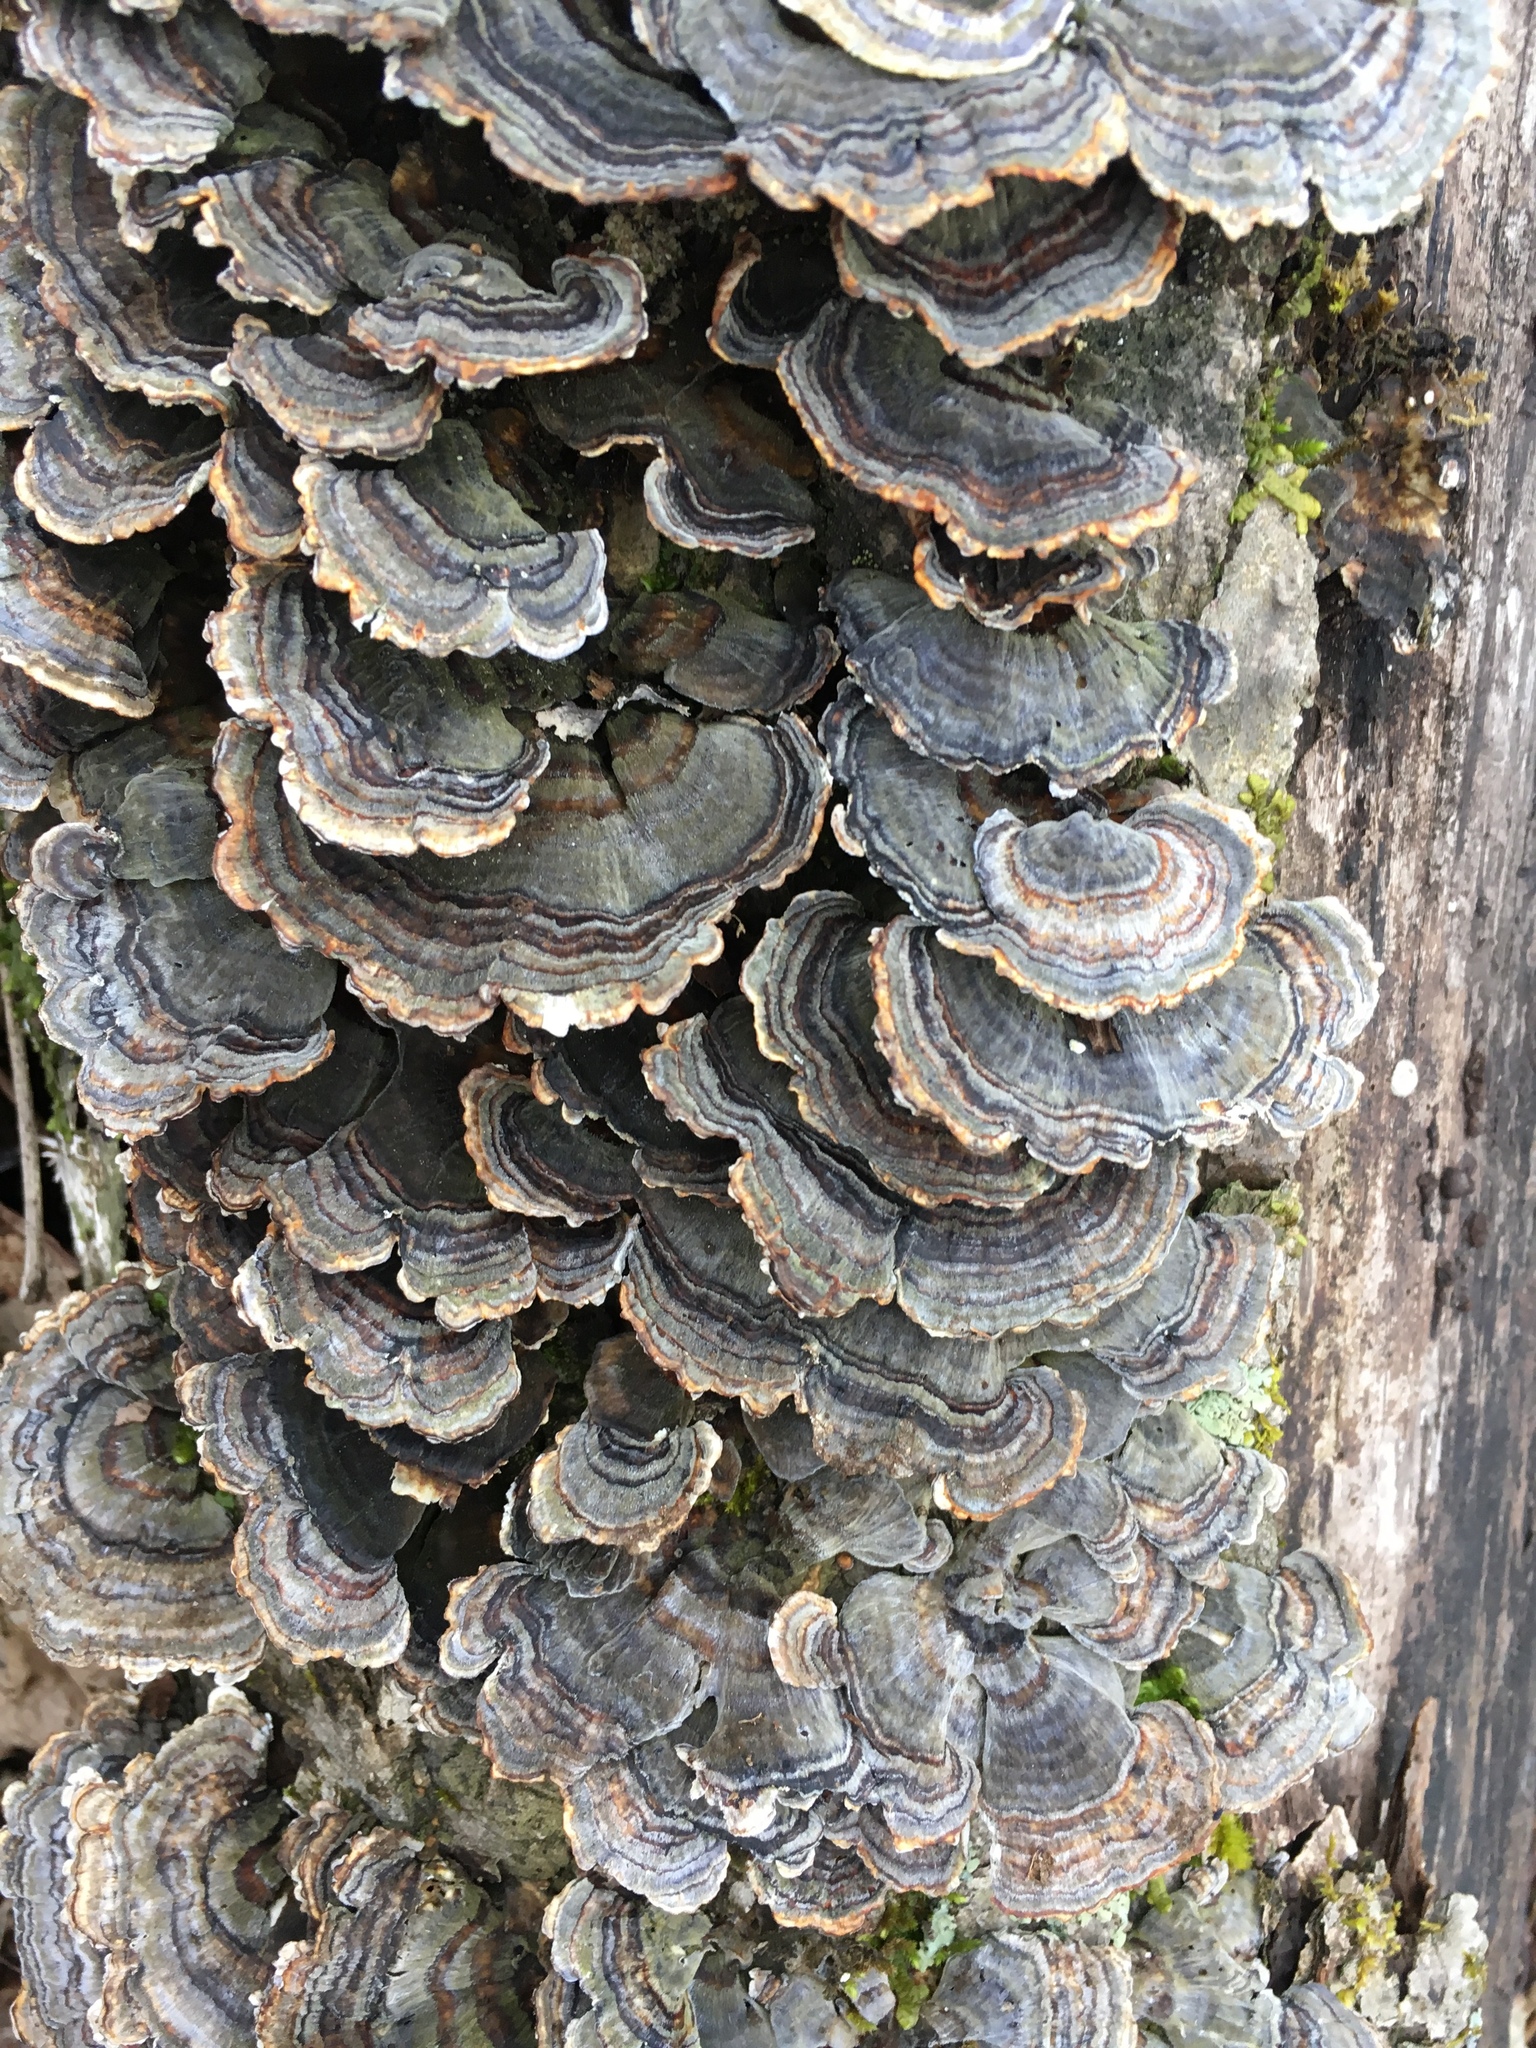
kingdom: Fungi
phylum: Basidiomycota
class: Agaricomycetes
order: Polyporales
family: Polyporaceae
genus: Trametes
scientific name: Trametes versicolor
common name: Turkeytail
